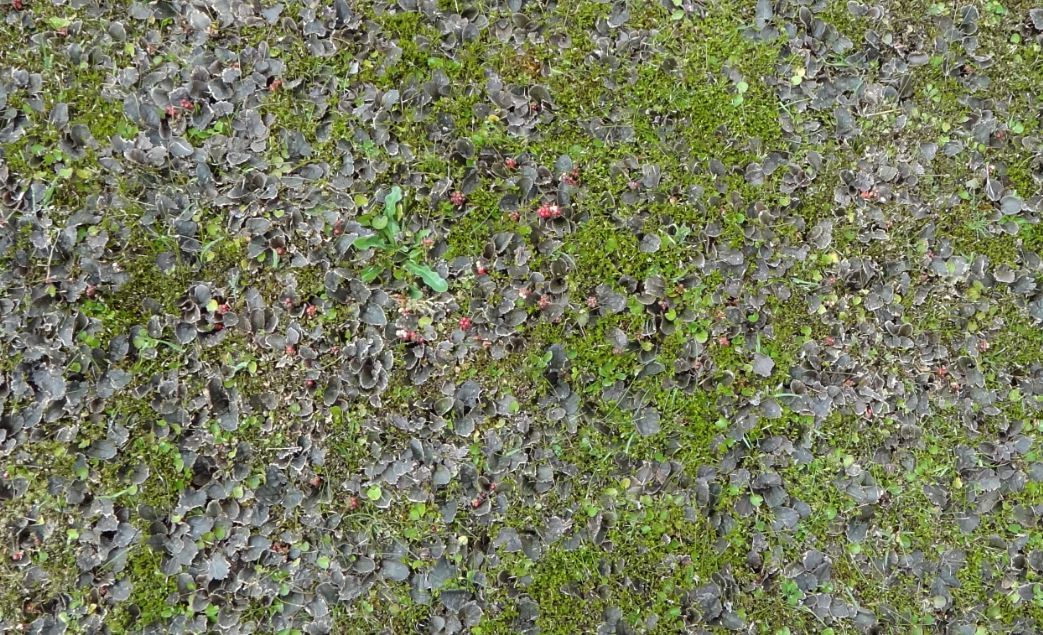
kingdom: Plantae
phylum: Tracheophyta
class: Magnoliopsida
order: Gunnerales
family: Gunneraceae
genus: Gunnera
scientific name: Gunnera prorepens
